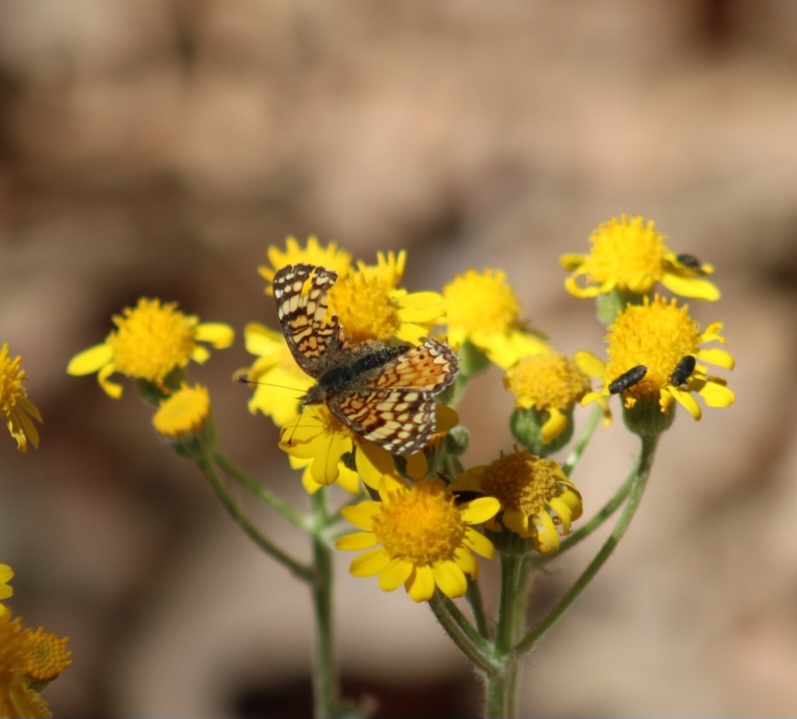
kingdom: Animalia
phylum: Arthropoda
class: Insecta
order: Lepidoptera
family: Nymphalidae
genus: Eresia
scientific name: Eresia aveyrona
